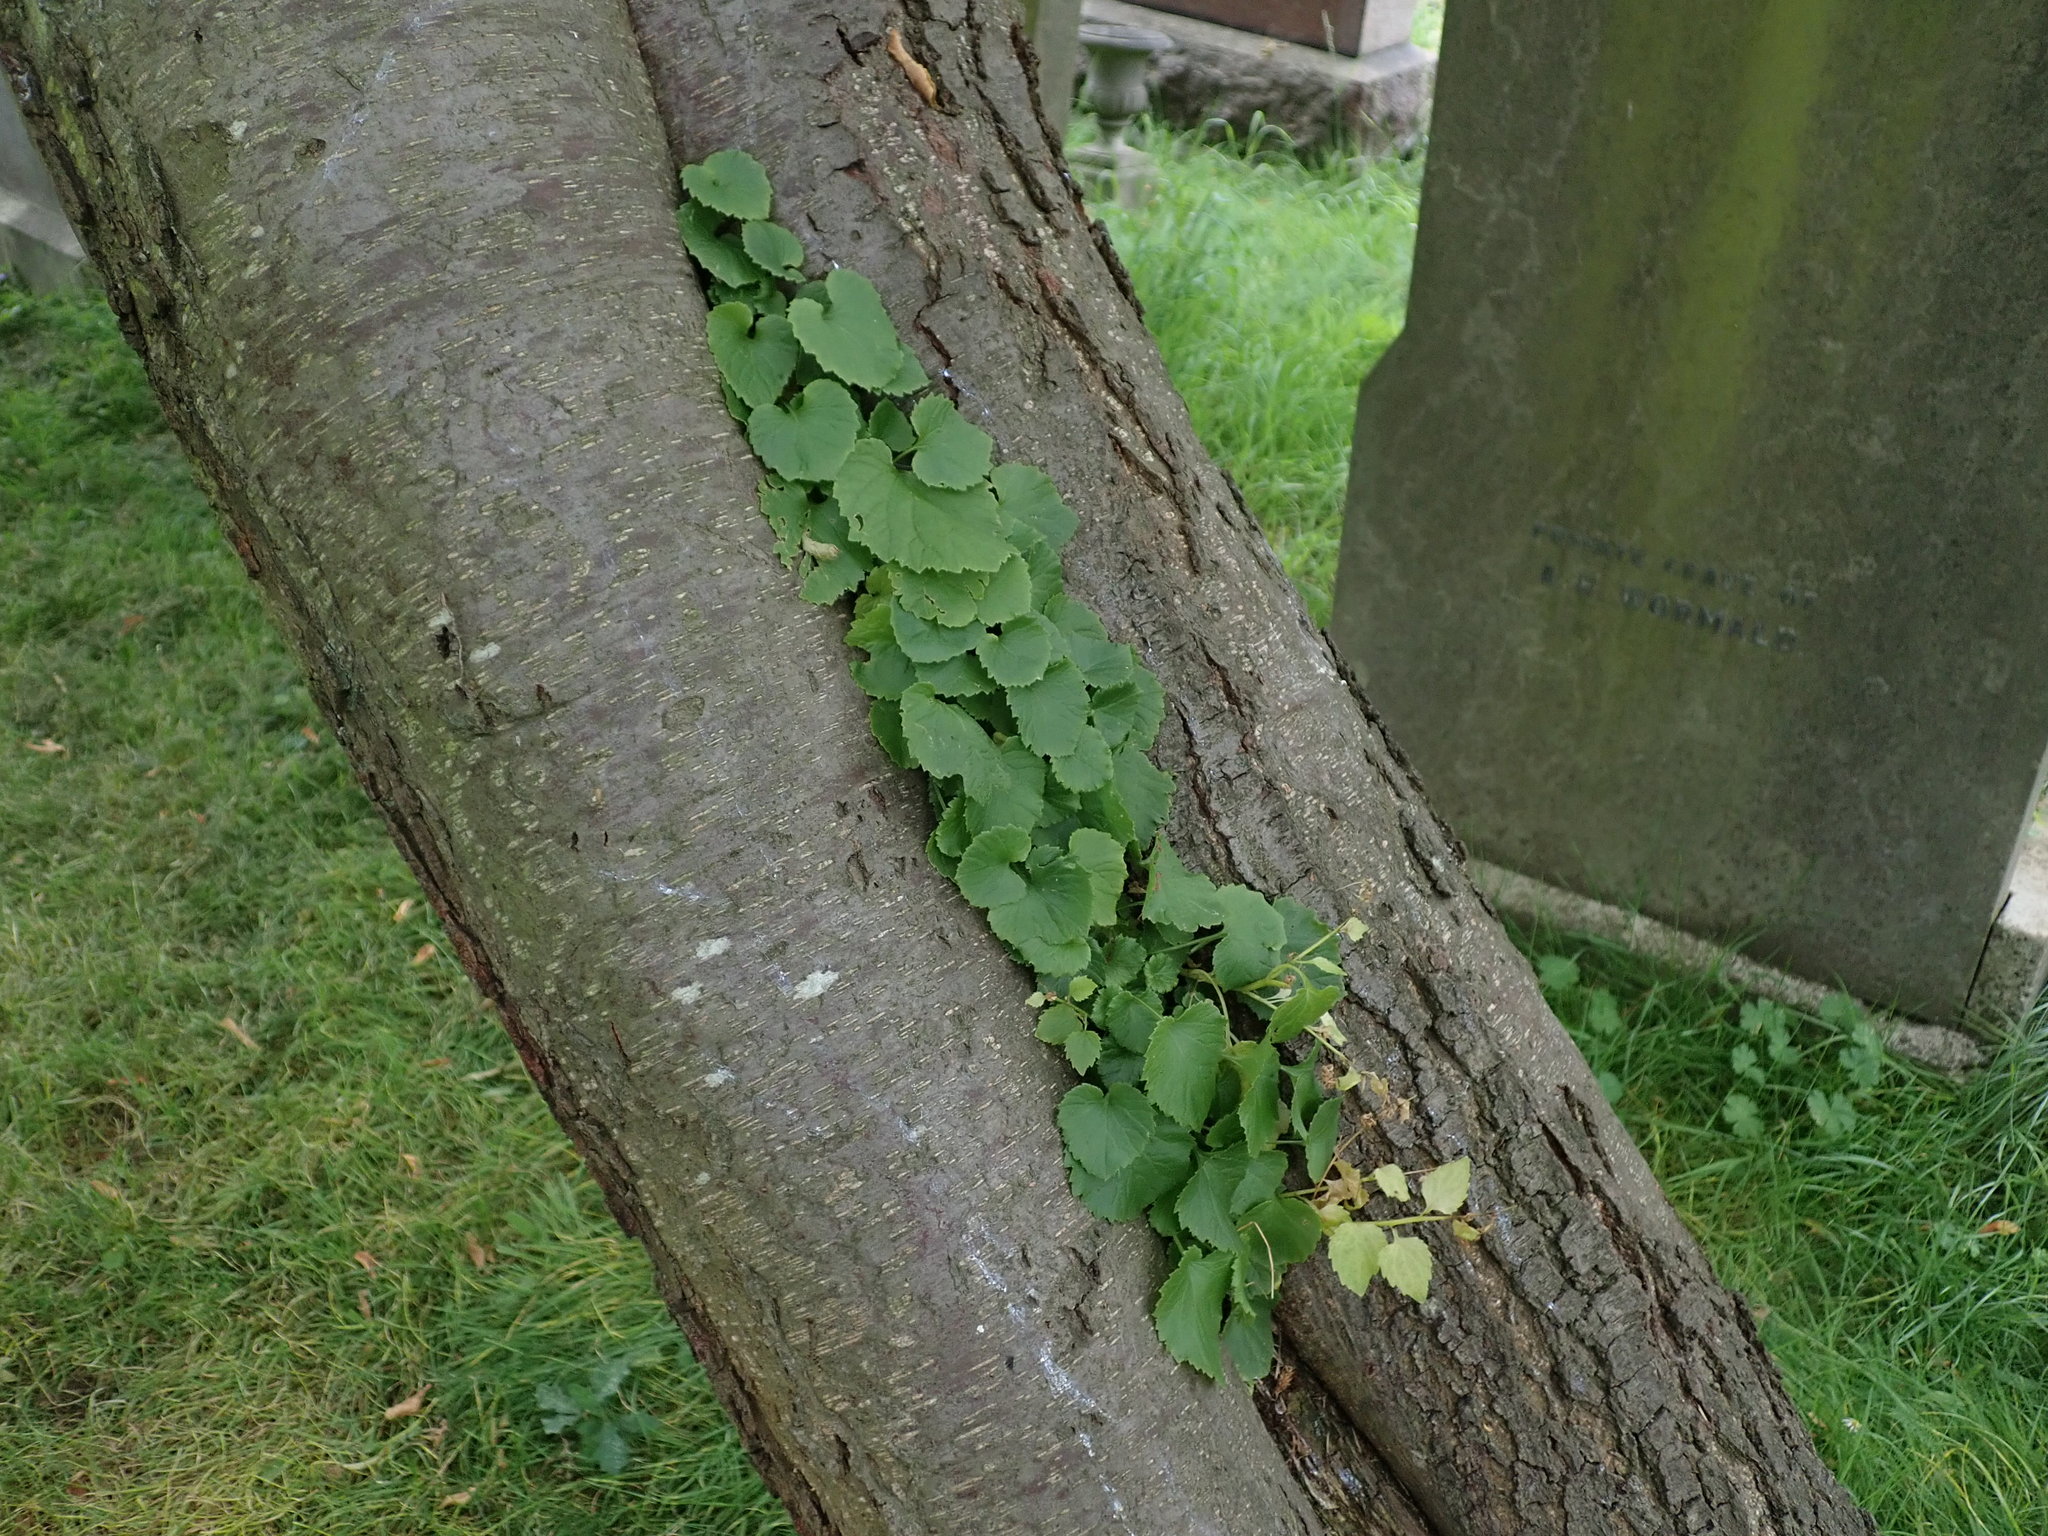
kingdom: Plantae
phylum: Tracheophyta
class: Magnoliopsida
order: Asterales
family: Campanulaceae
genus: Campanula
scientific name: Campanula poscharskyana
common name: Trailing bellflower
